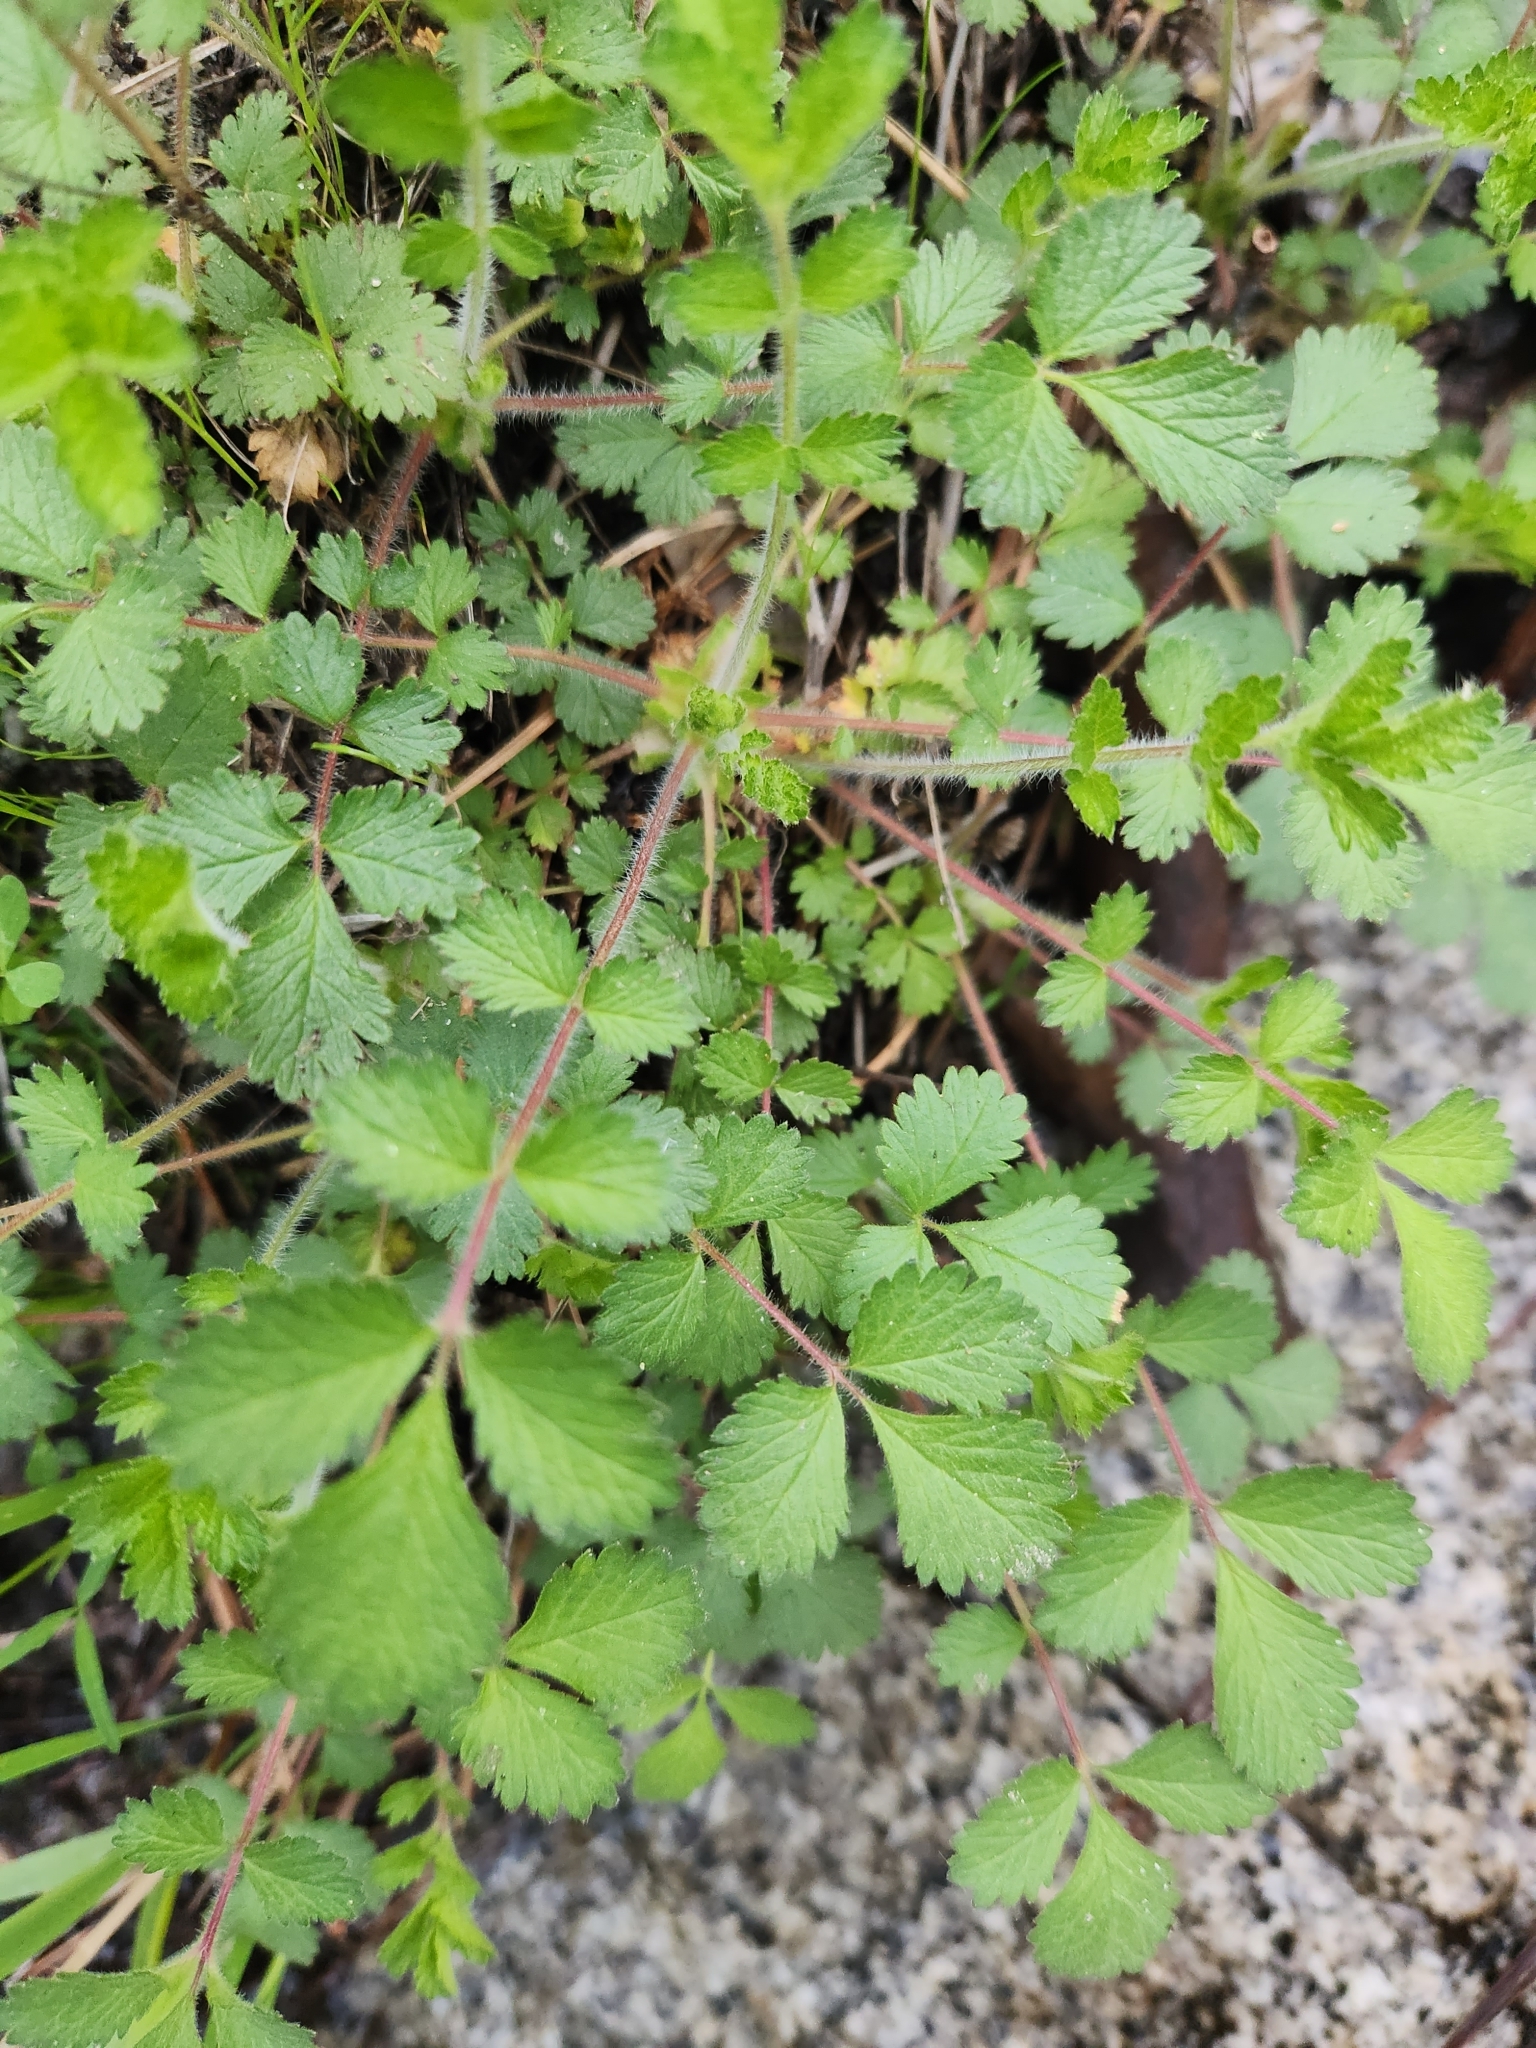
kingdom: Plantae
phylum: Tracheophyta
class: Magnoliopsida
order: Rosales
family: Rosaceae
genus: Drymocallis
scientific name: Drymocallis glandulosa
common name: Sticky cinquefoil
